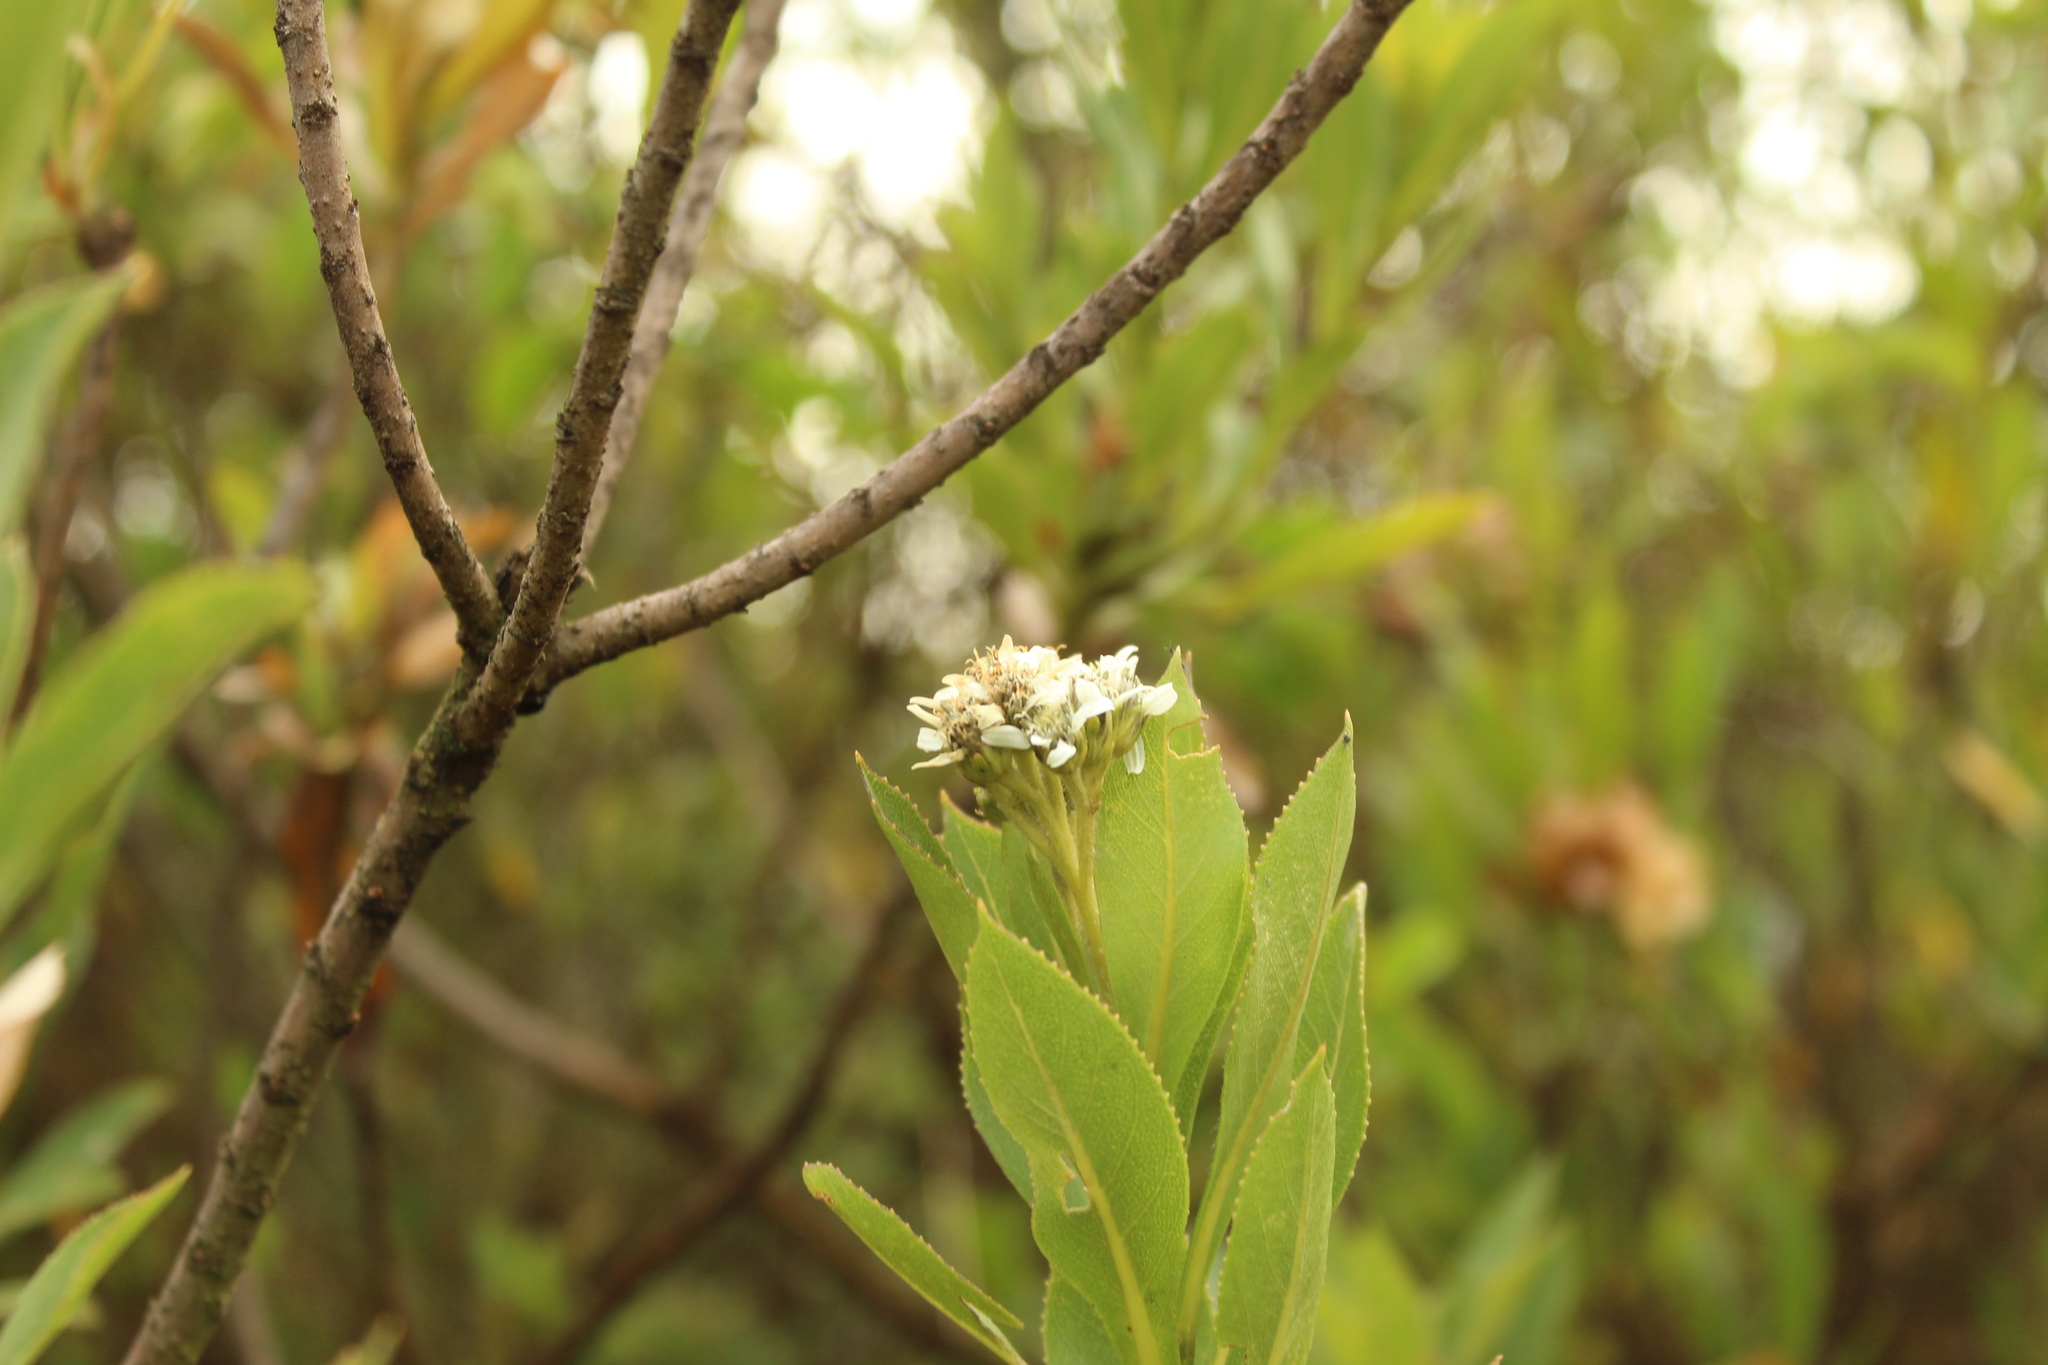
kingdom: Plantae
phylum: Tracheophyta
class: Magnoliopsida
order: Asterales
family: Asteraceae
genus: Verbesina
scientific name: Verbesina centroboyacana
